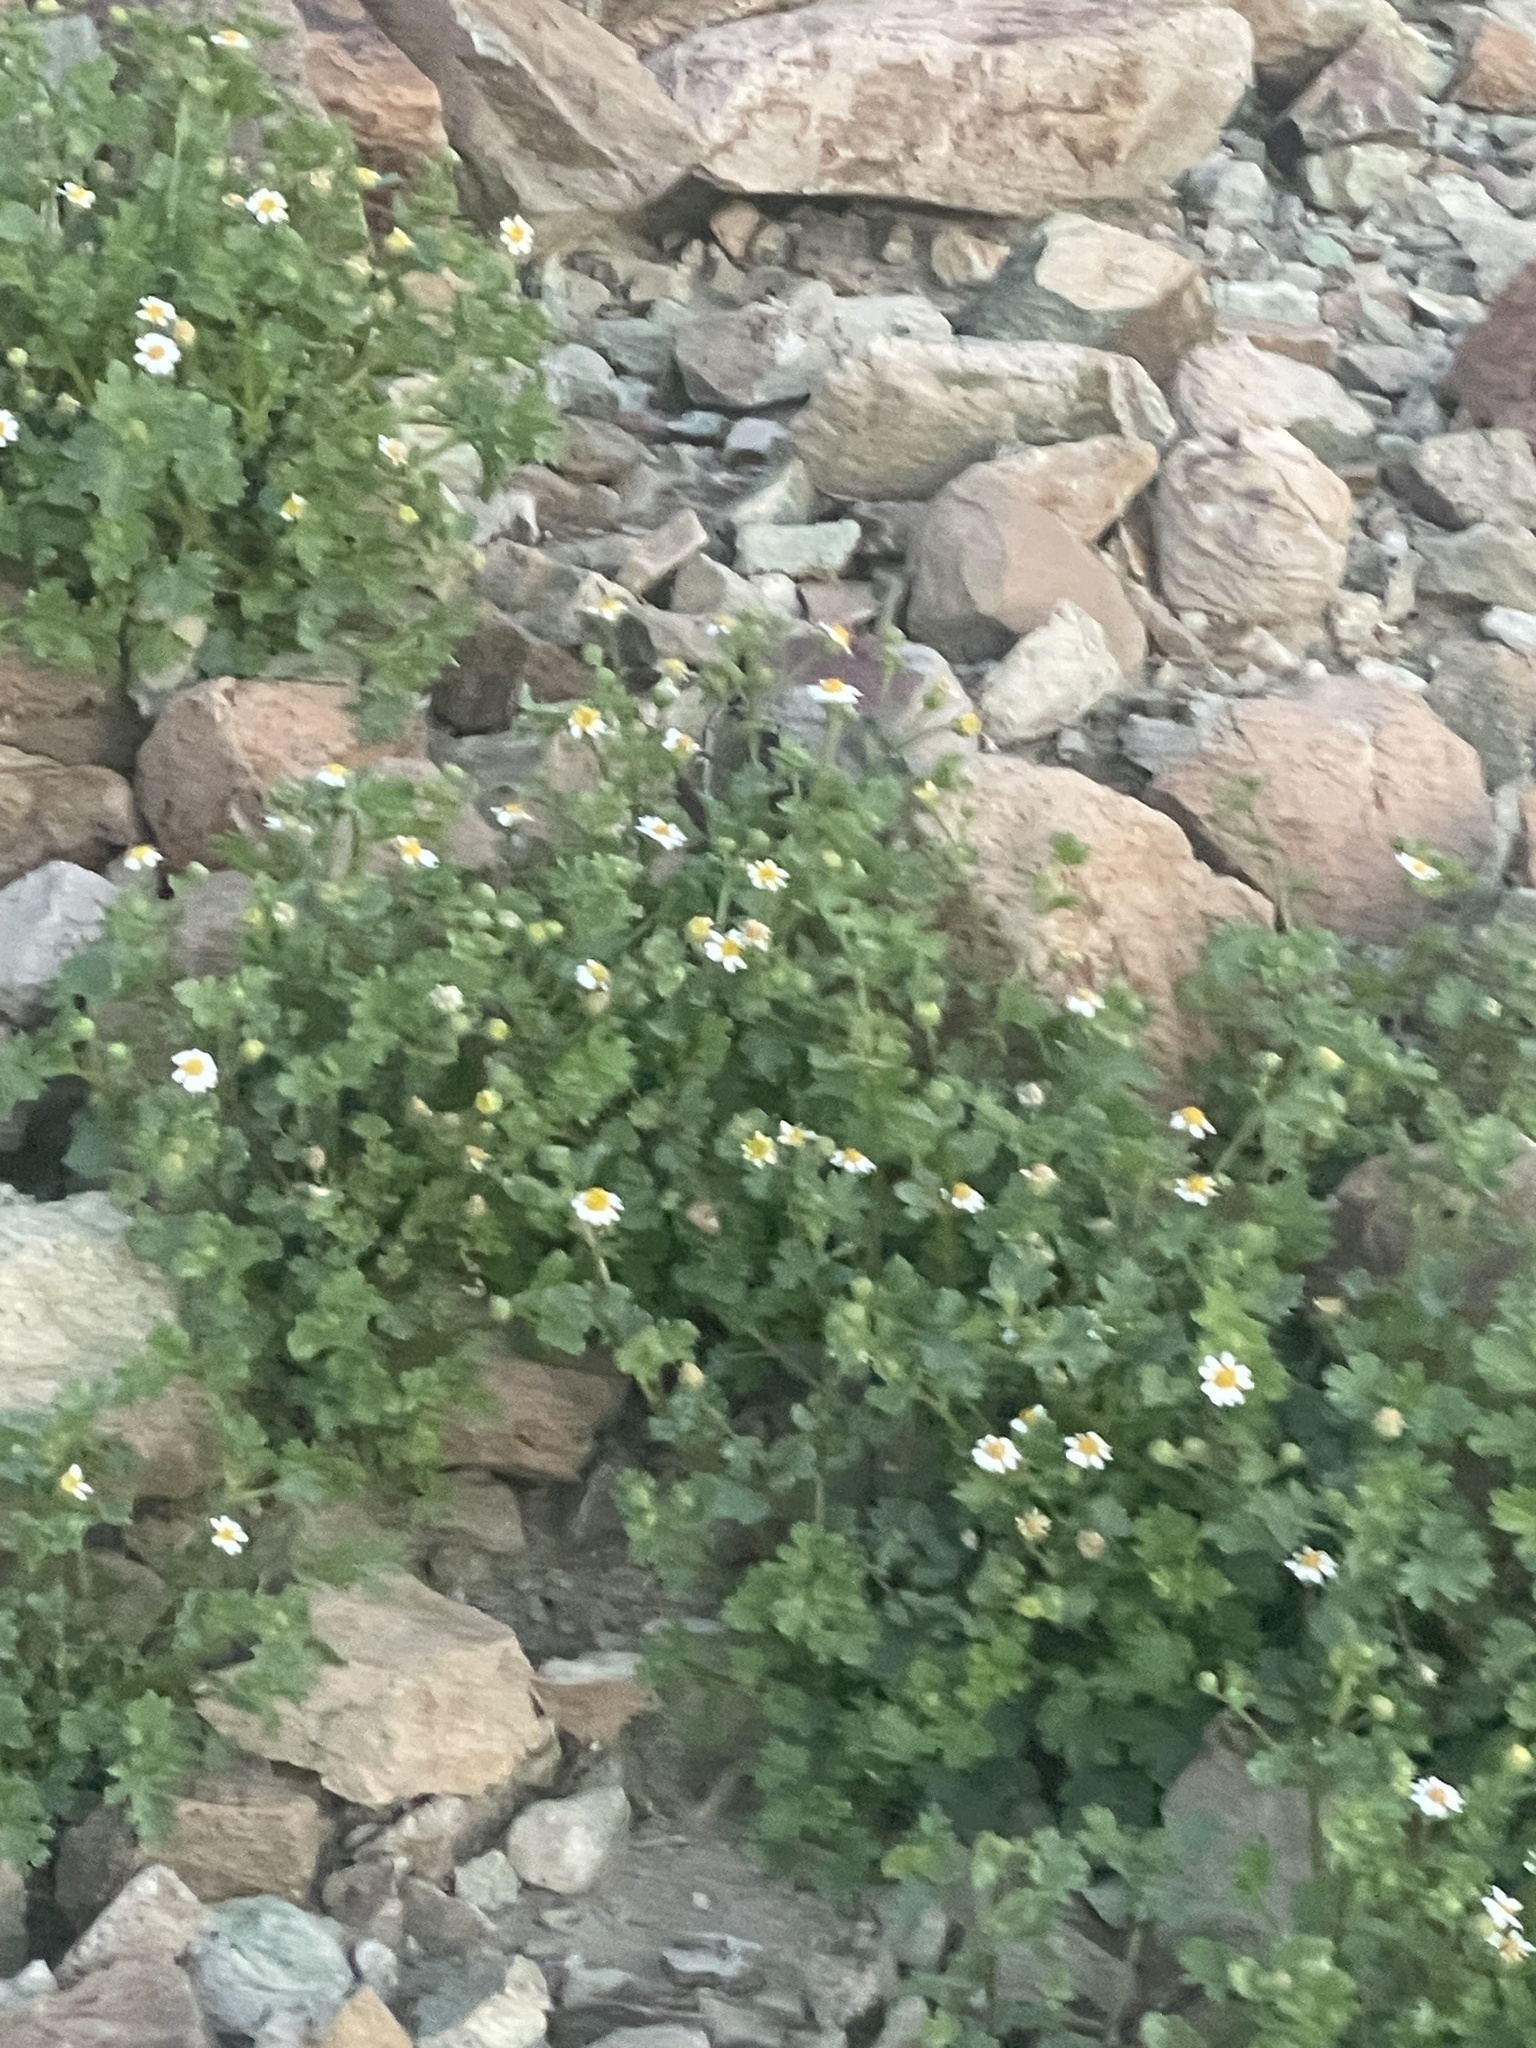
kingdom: Plantae
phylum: Tracheophyta
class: Magnoliopsida
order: Asterales
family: Asteraceae
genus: Laphamia
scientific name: Laphamia emoryi
